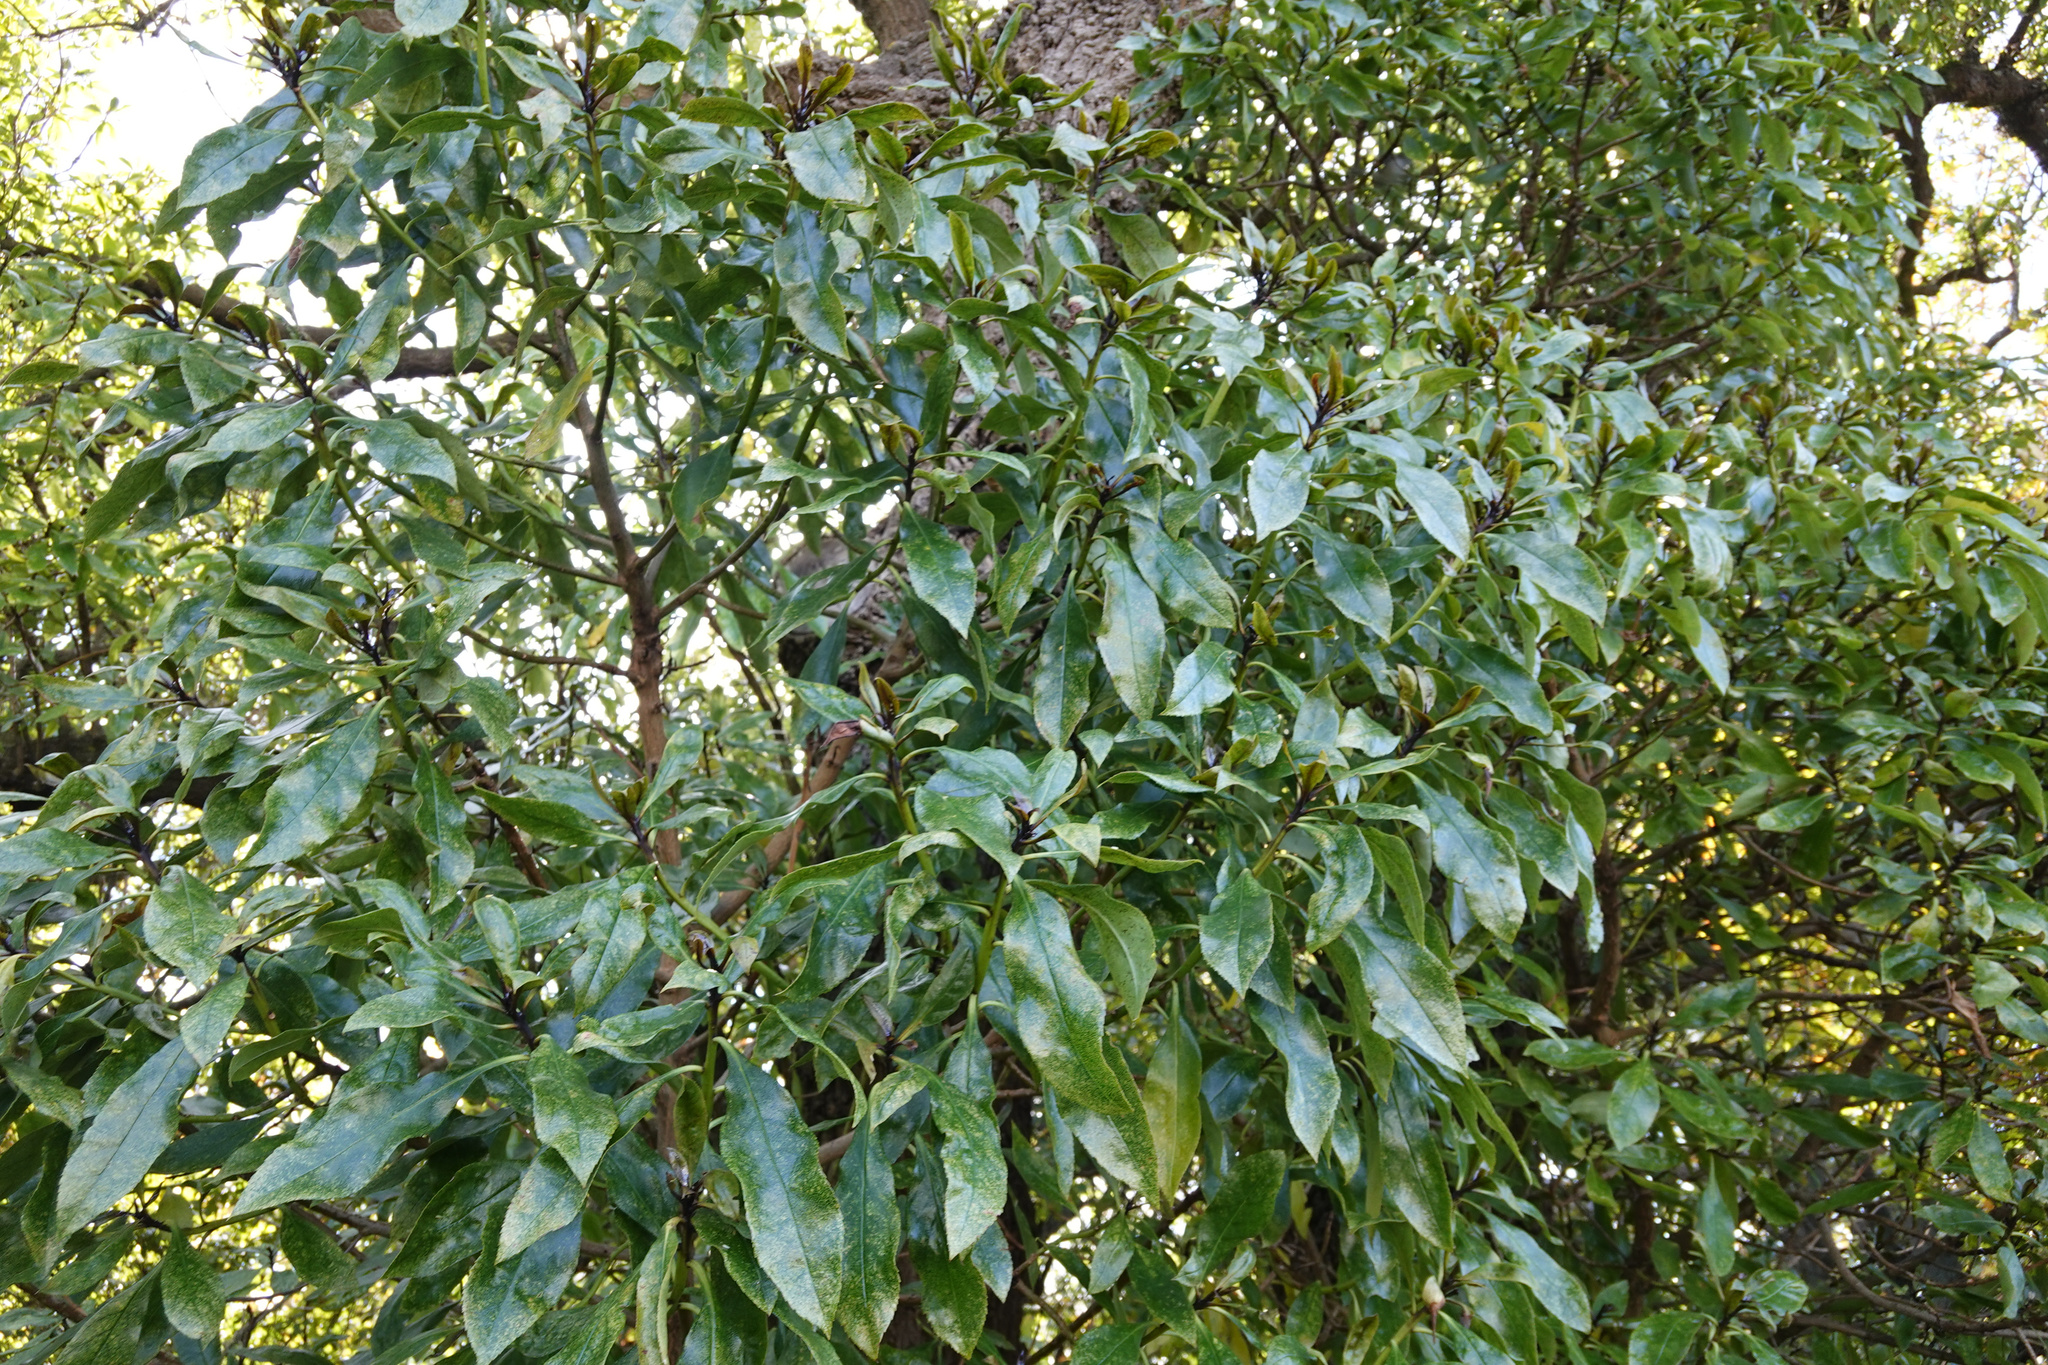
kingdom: Plantae
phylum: Tracheophyta
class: Magnoliopsida
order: Lamiales
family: Scrophulariaceae
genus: Myoporum
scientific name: Myoporum laetum
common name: Ngaio tree
